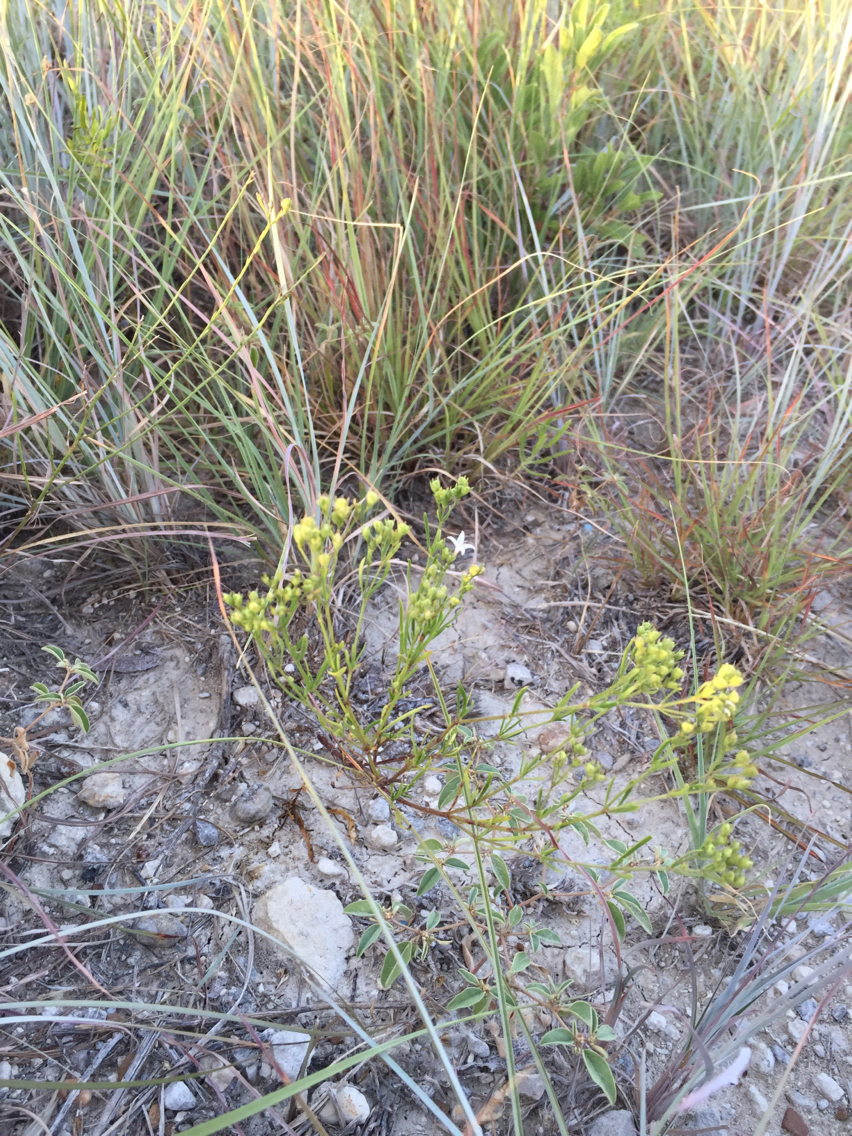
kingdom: Plantae
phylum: Tracheophyta
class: Magnoliopsida
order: Gentianales
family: Rubiaceae
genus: Stenaria
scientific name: Stenaria nigricans
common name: Diamondflowers
